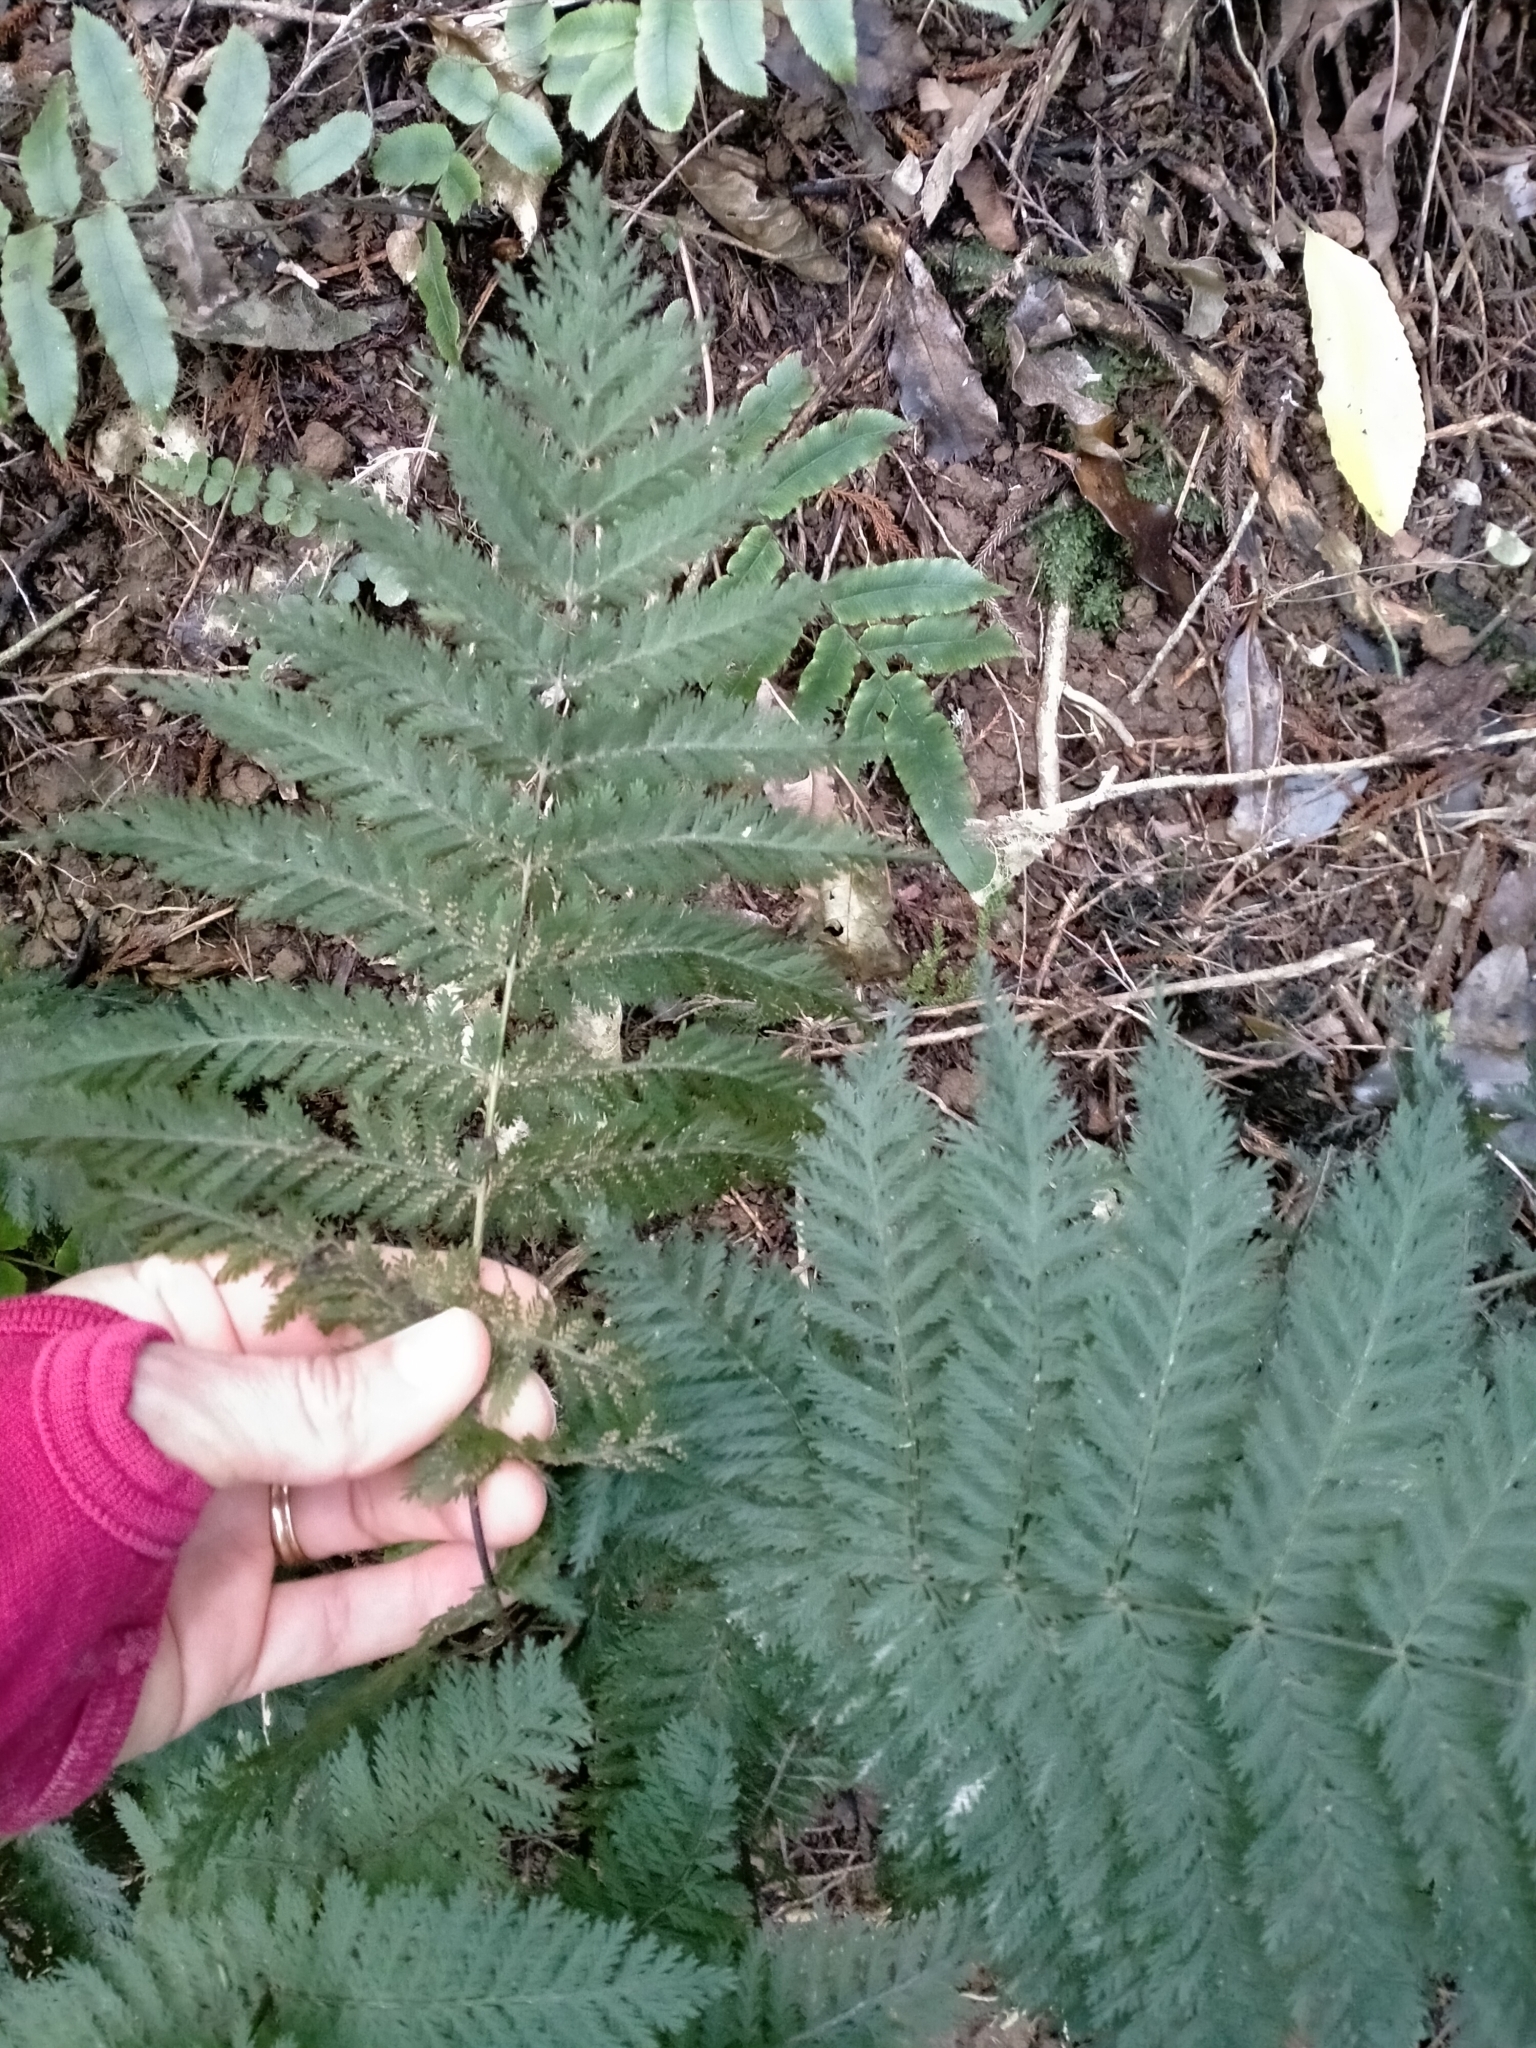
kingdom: Plantae
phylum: Tracheophyta
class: Polypodiopsida
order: Osmundales
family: Osmundaceae
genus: Leptopteris
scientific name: Leptopteris hymenophylloides
